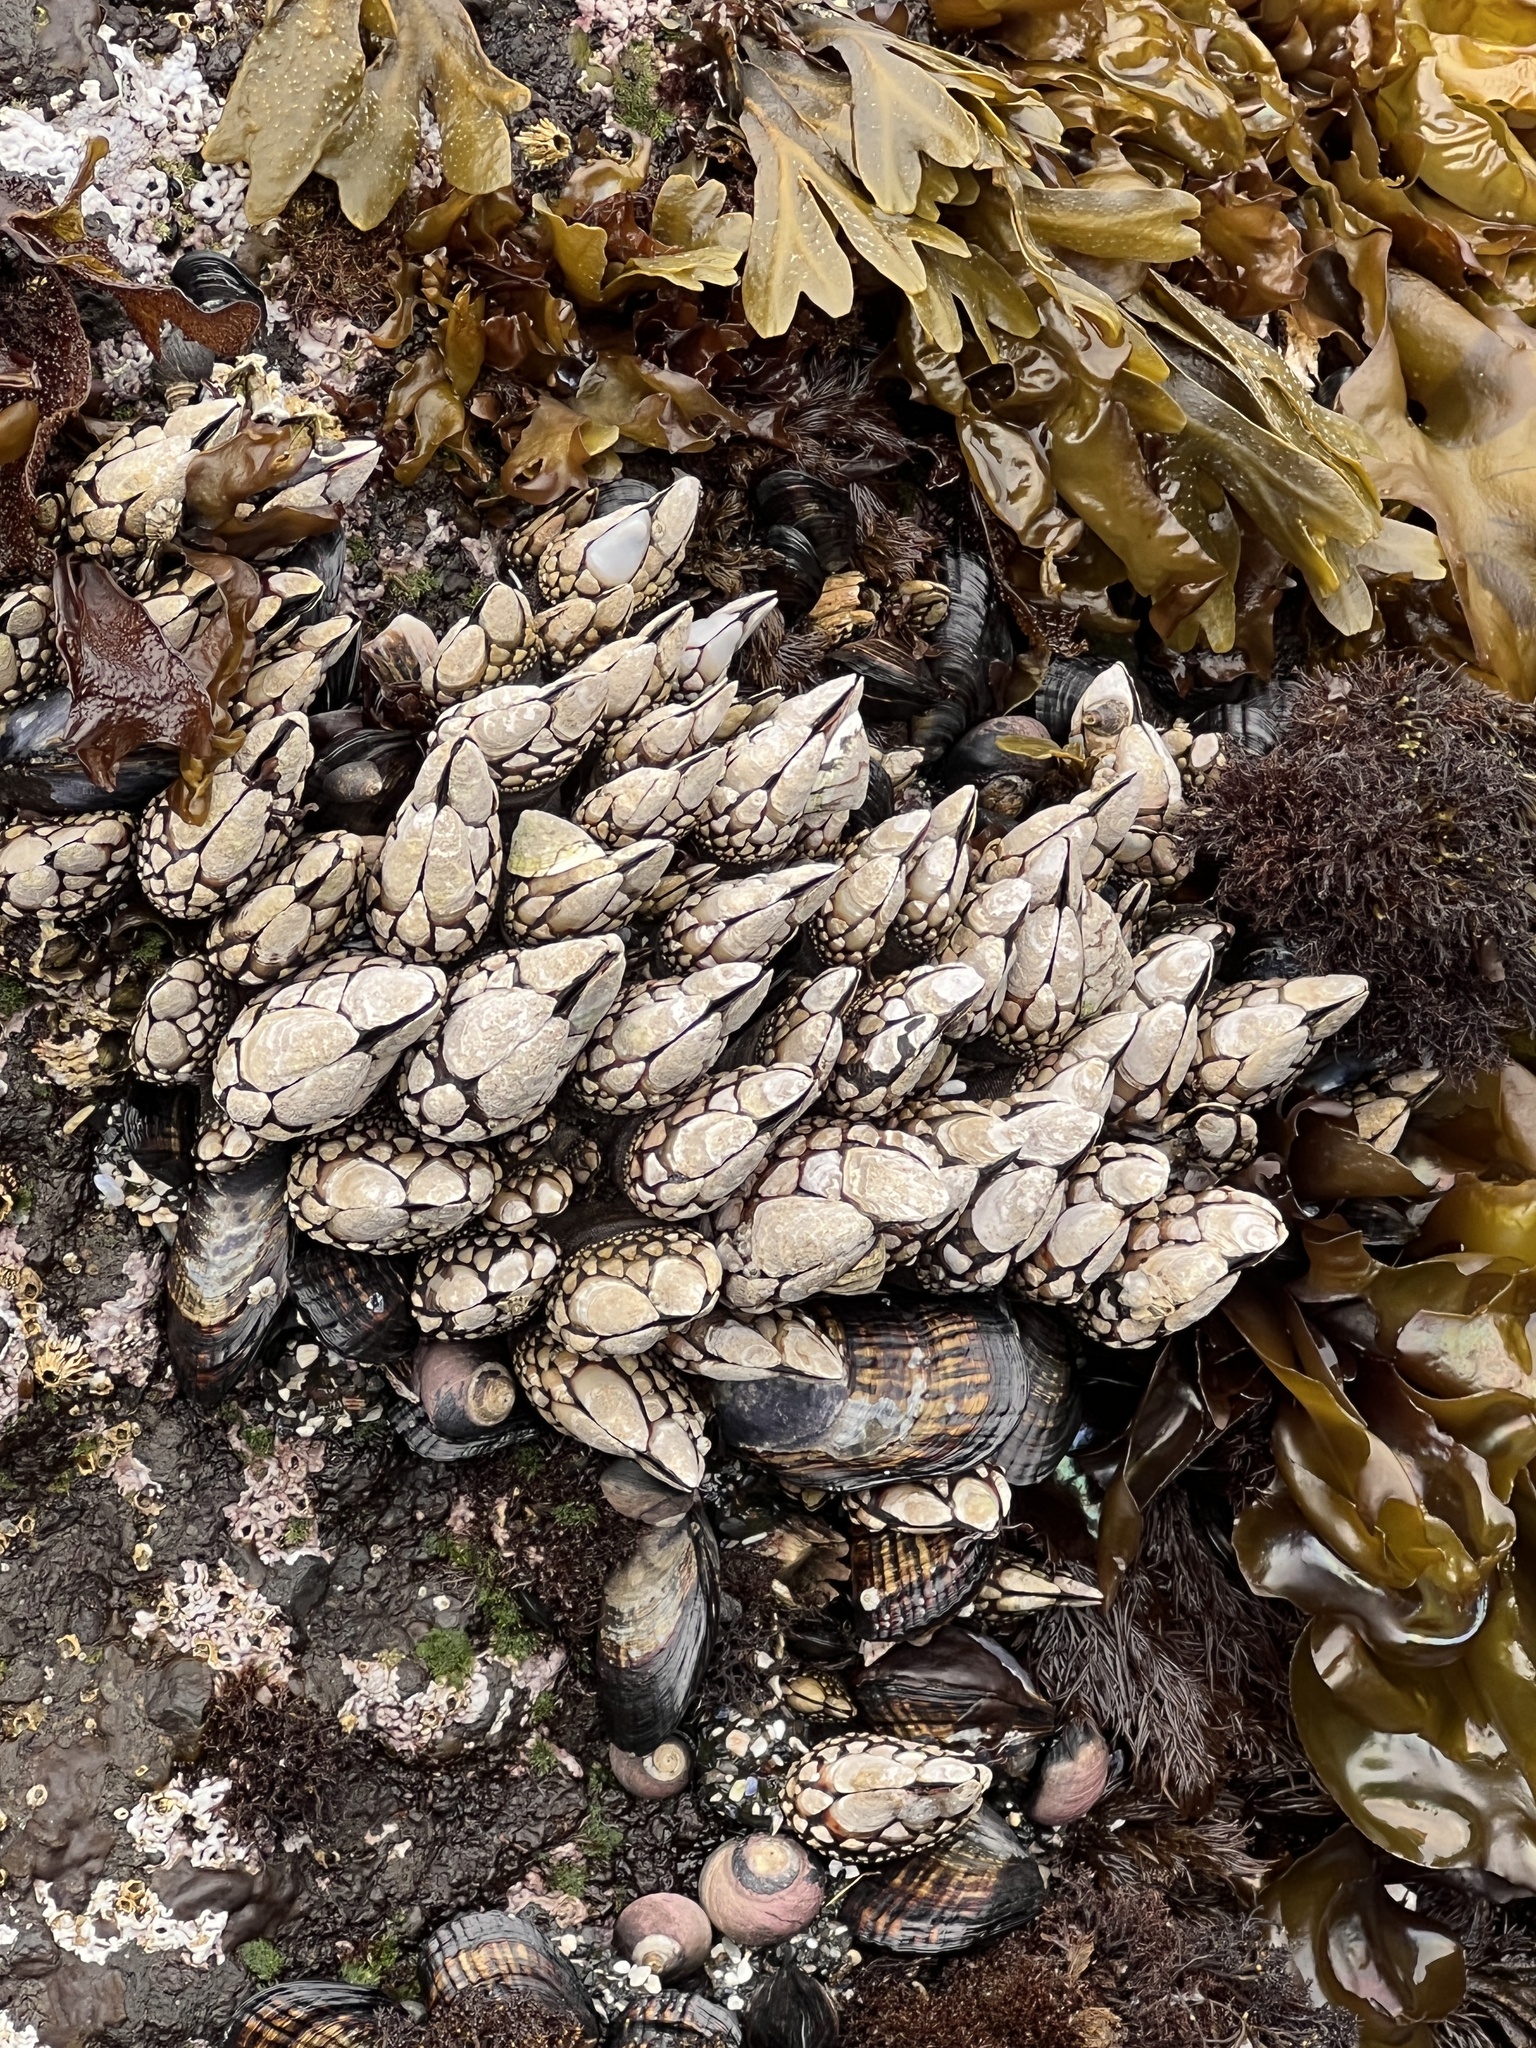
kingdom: Animalia
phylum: Arthropoda
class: Maxillopoda
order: Pedunculata
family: Pollicipedidae
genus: Pollicipes
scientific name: Pollicipes polymerus
